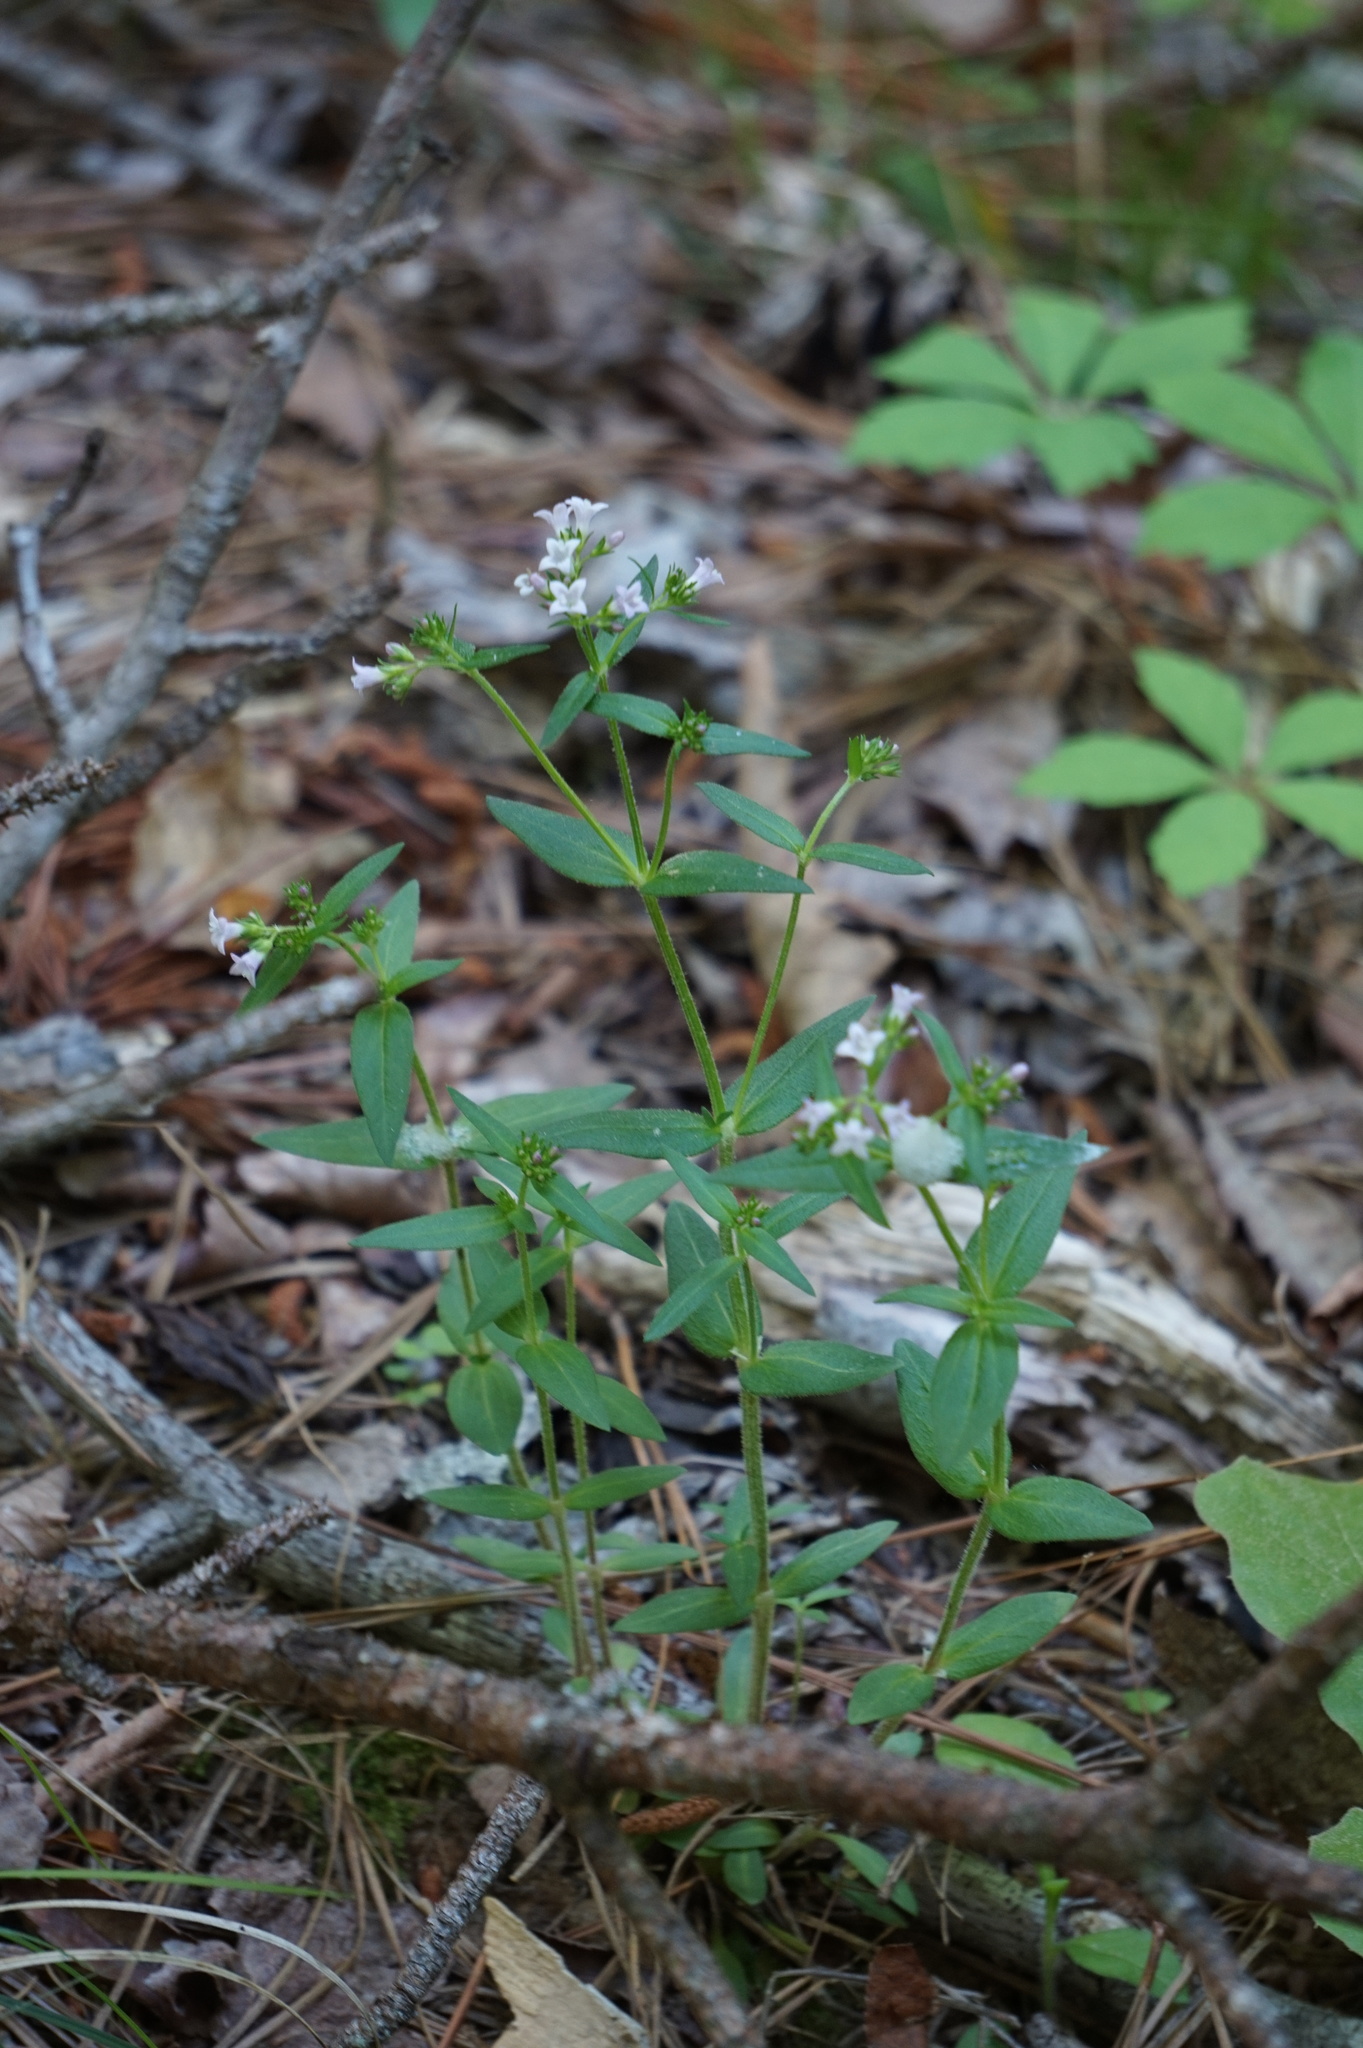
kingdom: Plantae
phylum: Tracheophyta
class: Magnoliopsida
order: Gentianales
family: Rubiaceae
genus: Houstonia
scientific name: Houstonia purpurea
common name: Summer bluet
